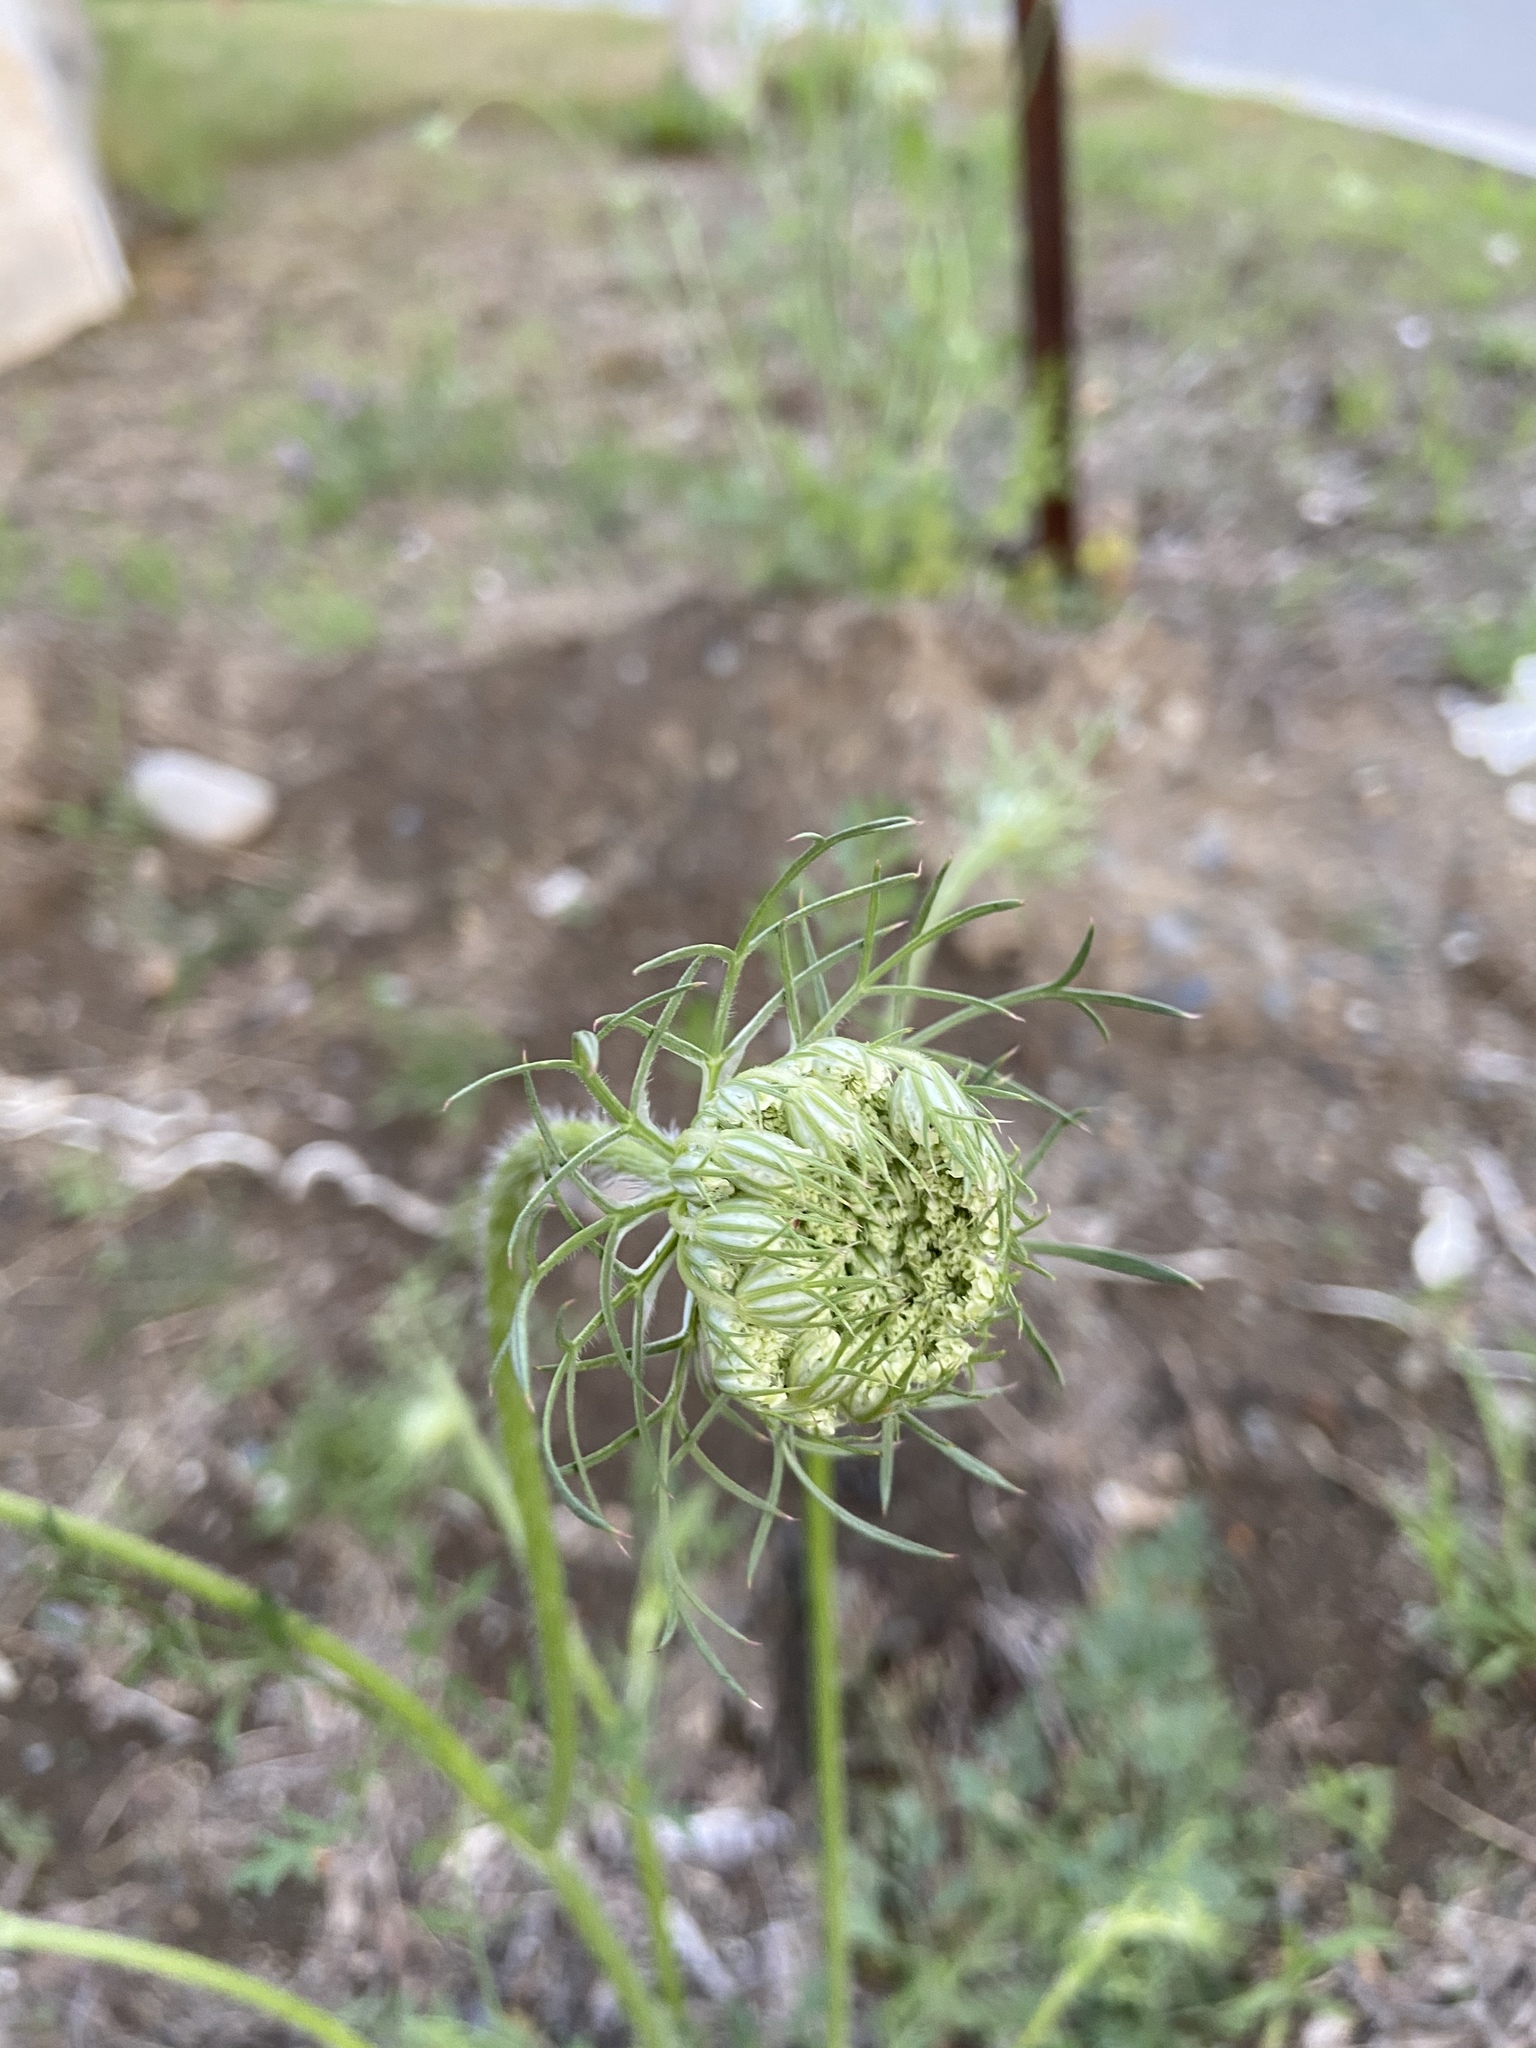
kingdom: Plantae
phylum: Tracheophyta
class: Magnoliopsida
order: Apiales
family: Apiaceae
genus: Daucus
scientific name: Daucus carota
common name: Wild carrot
